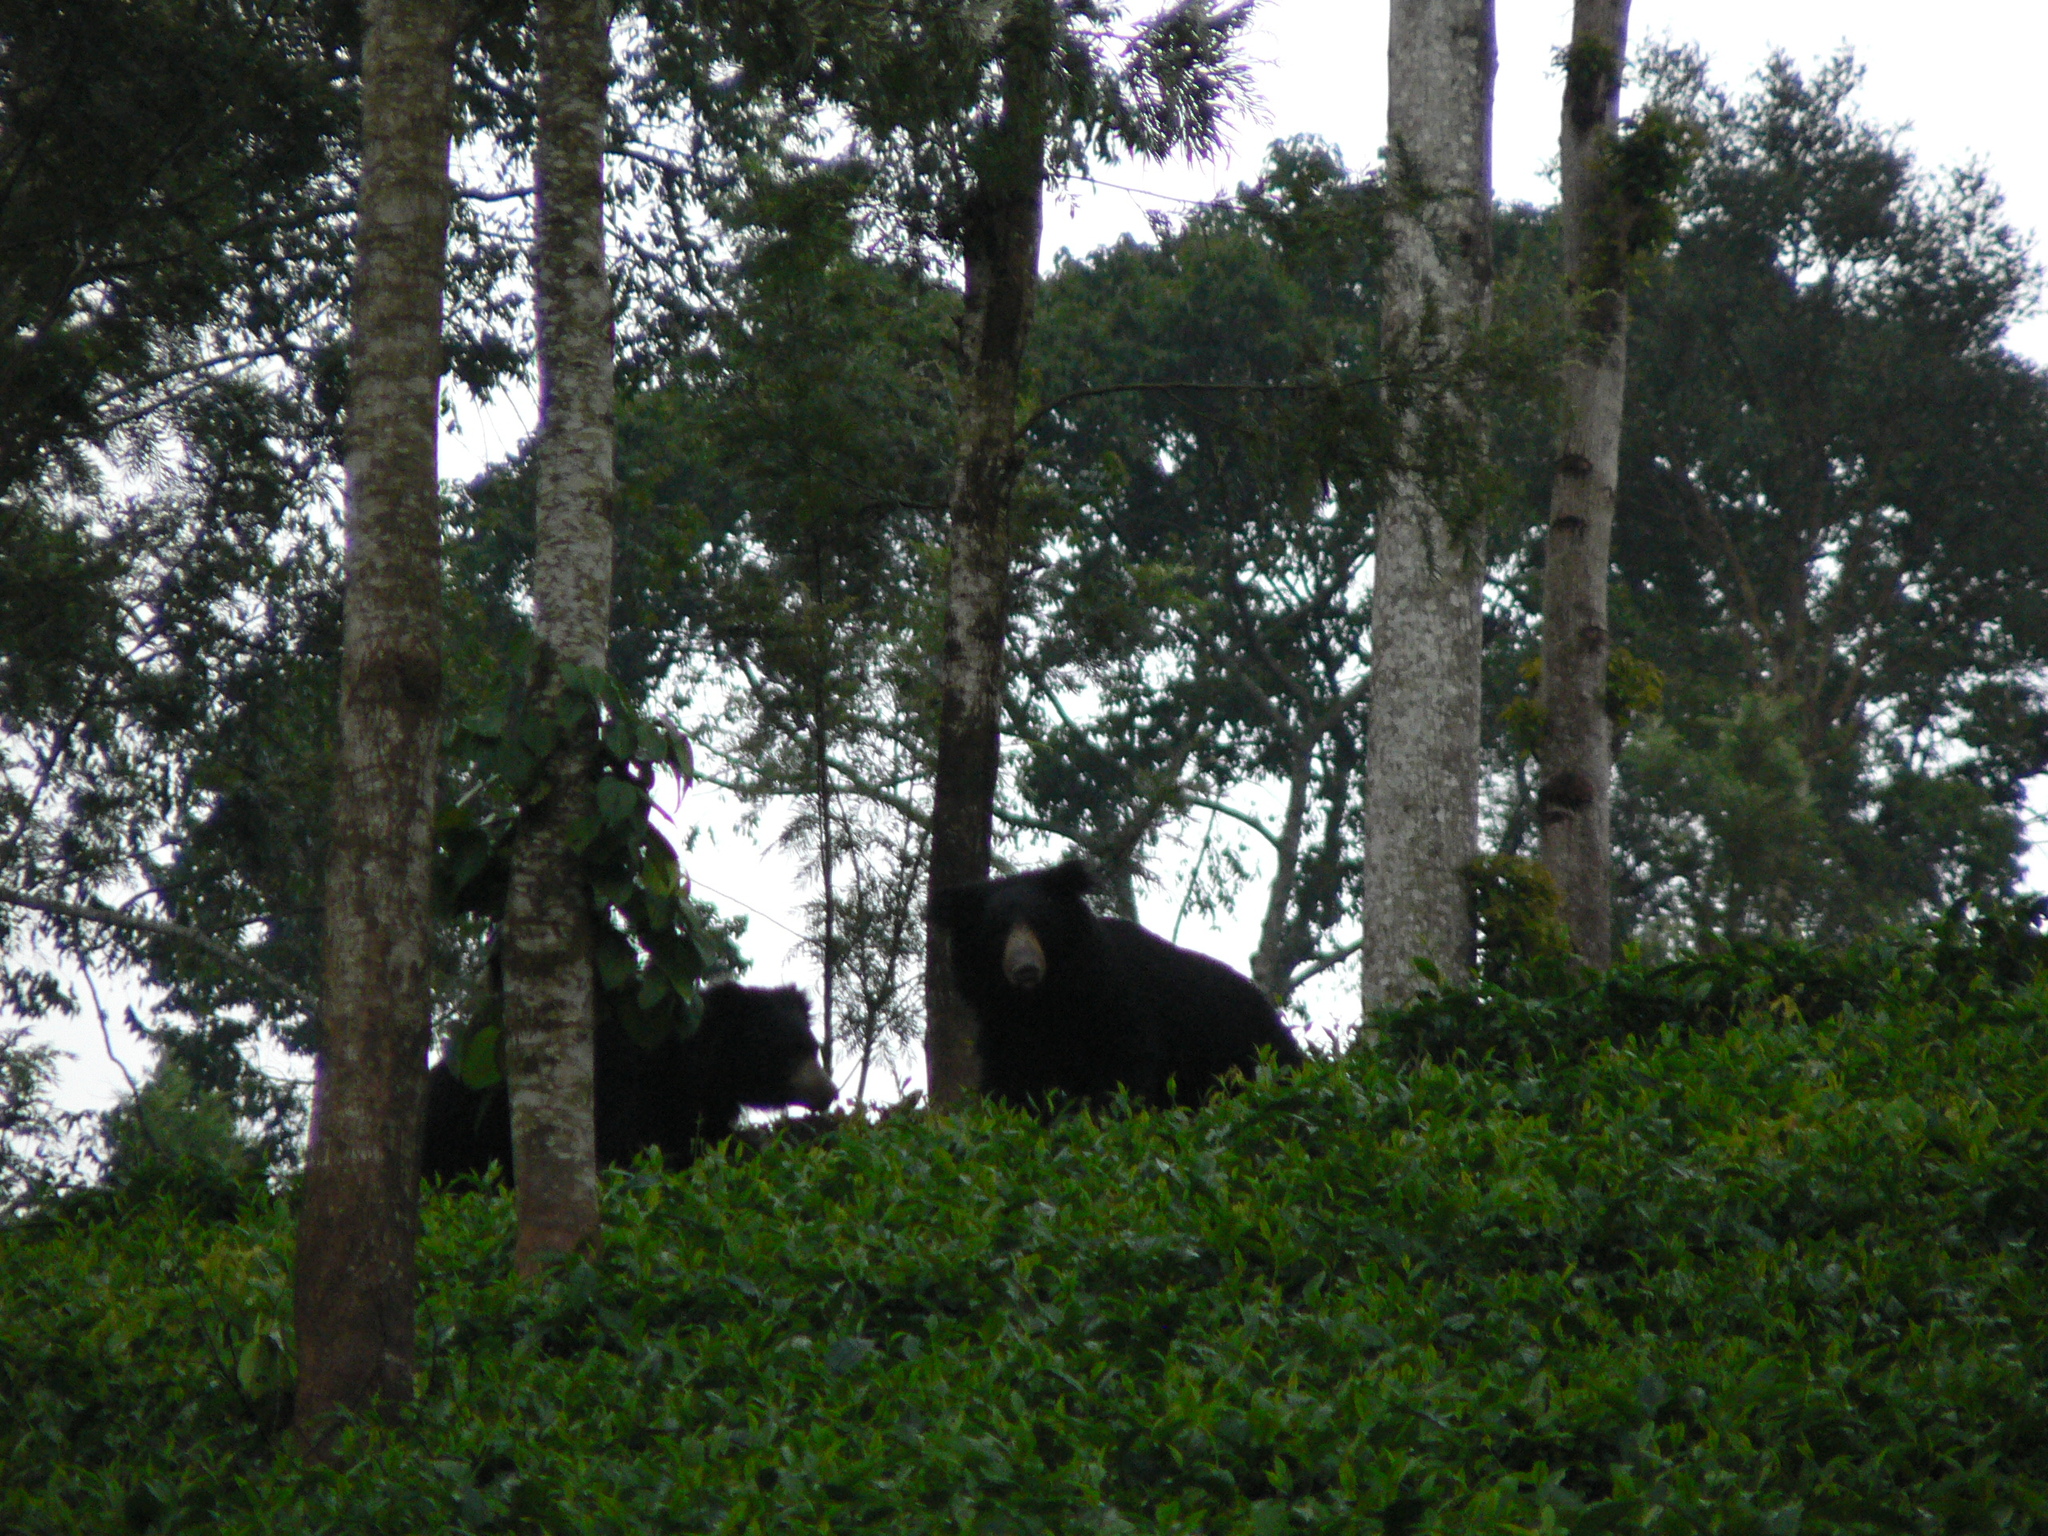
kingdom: Animalia
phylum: Chordata
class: Mammalia
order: Carnivora
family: Ursidae
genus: Melursus
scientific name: Melursus ursinus
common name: Sloth bear
